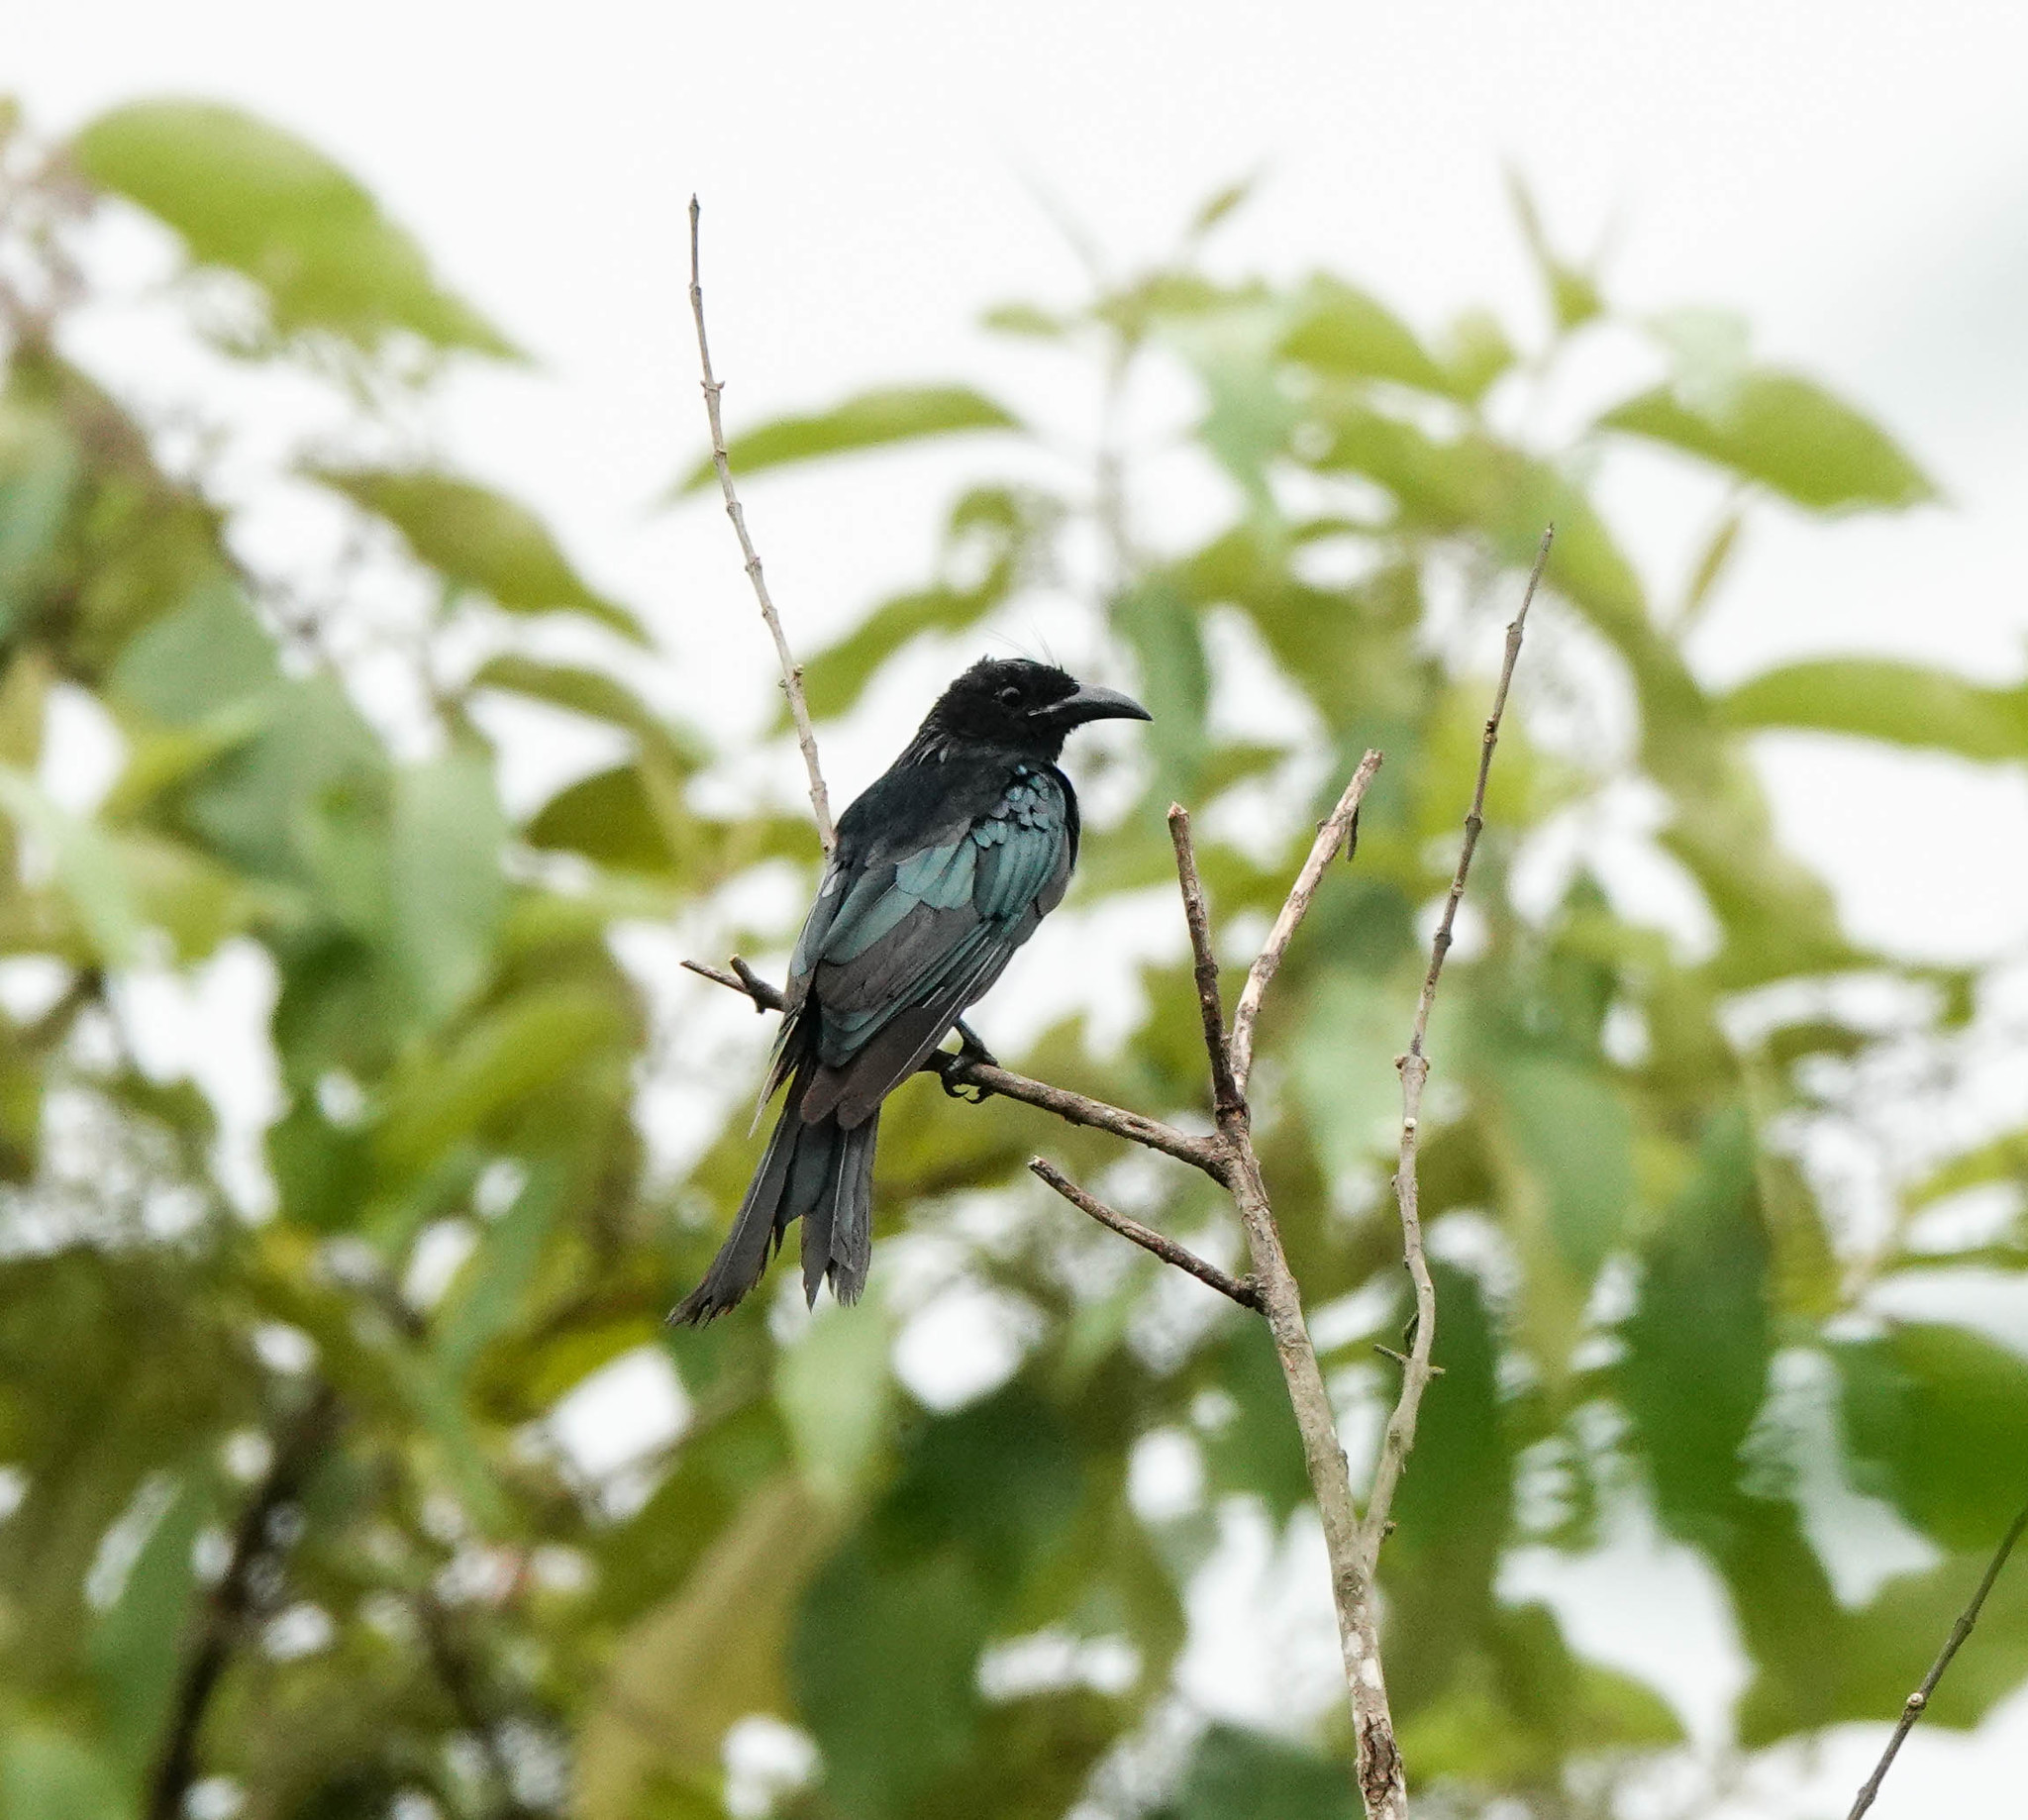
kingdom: Animalia
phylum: Chordata
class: Aves
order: Passeriformes
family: Dicruridae
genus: Dicrurus
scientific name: Dicrurus hottentottus
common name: Hair-crested drongo
